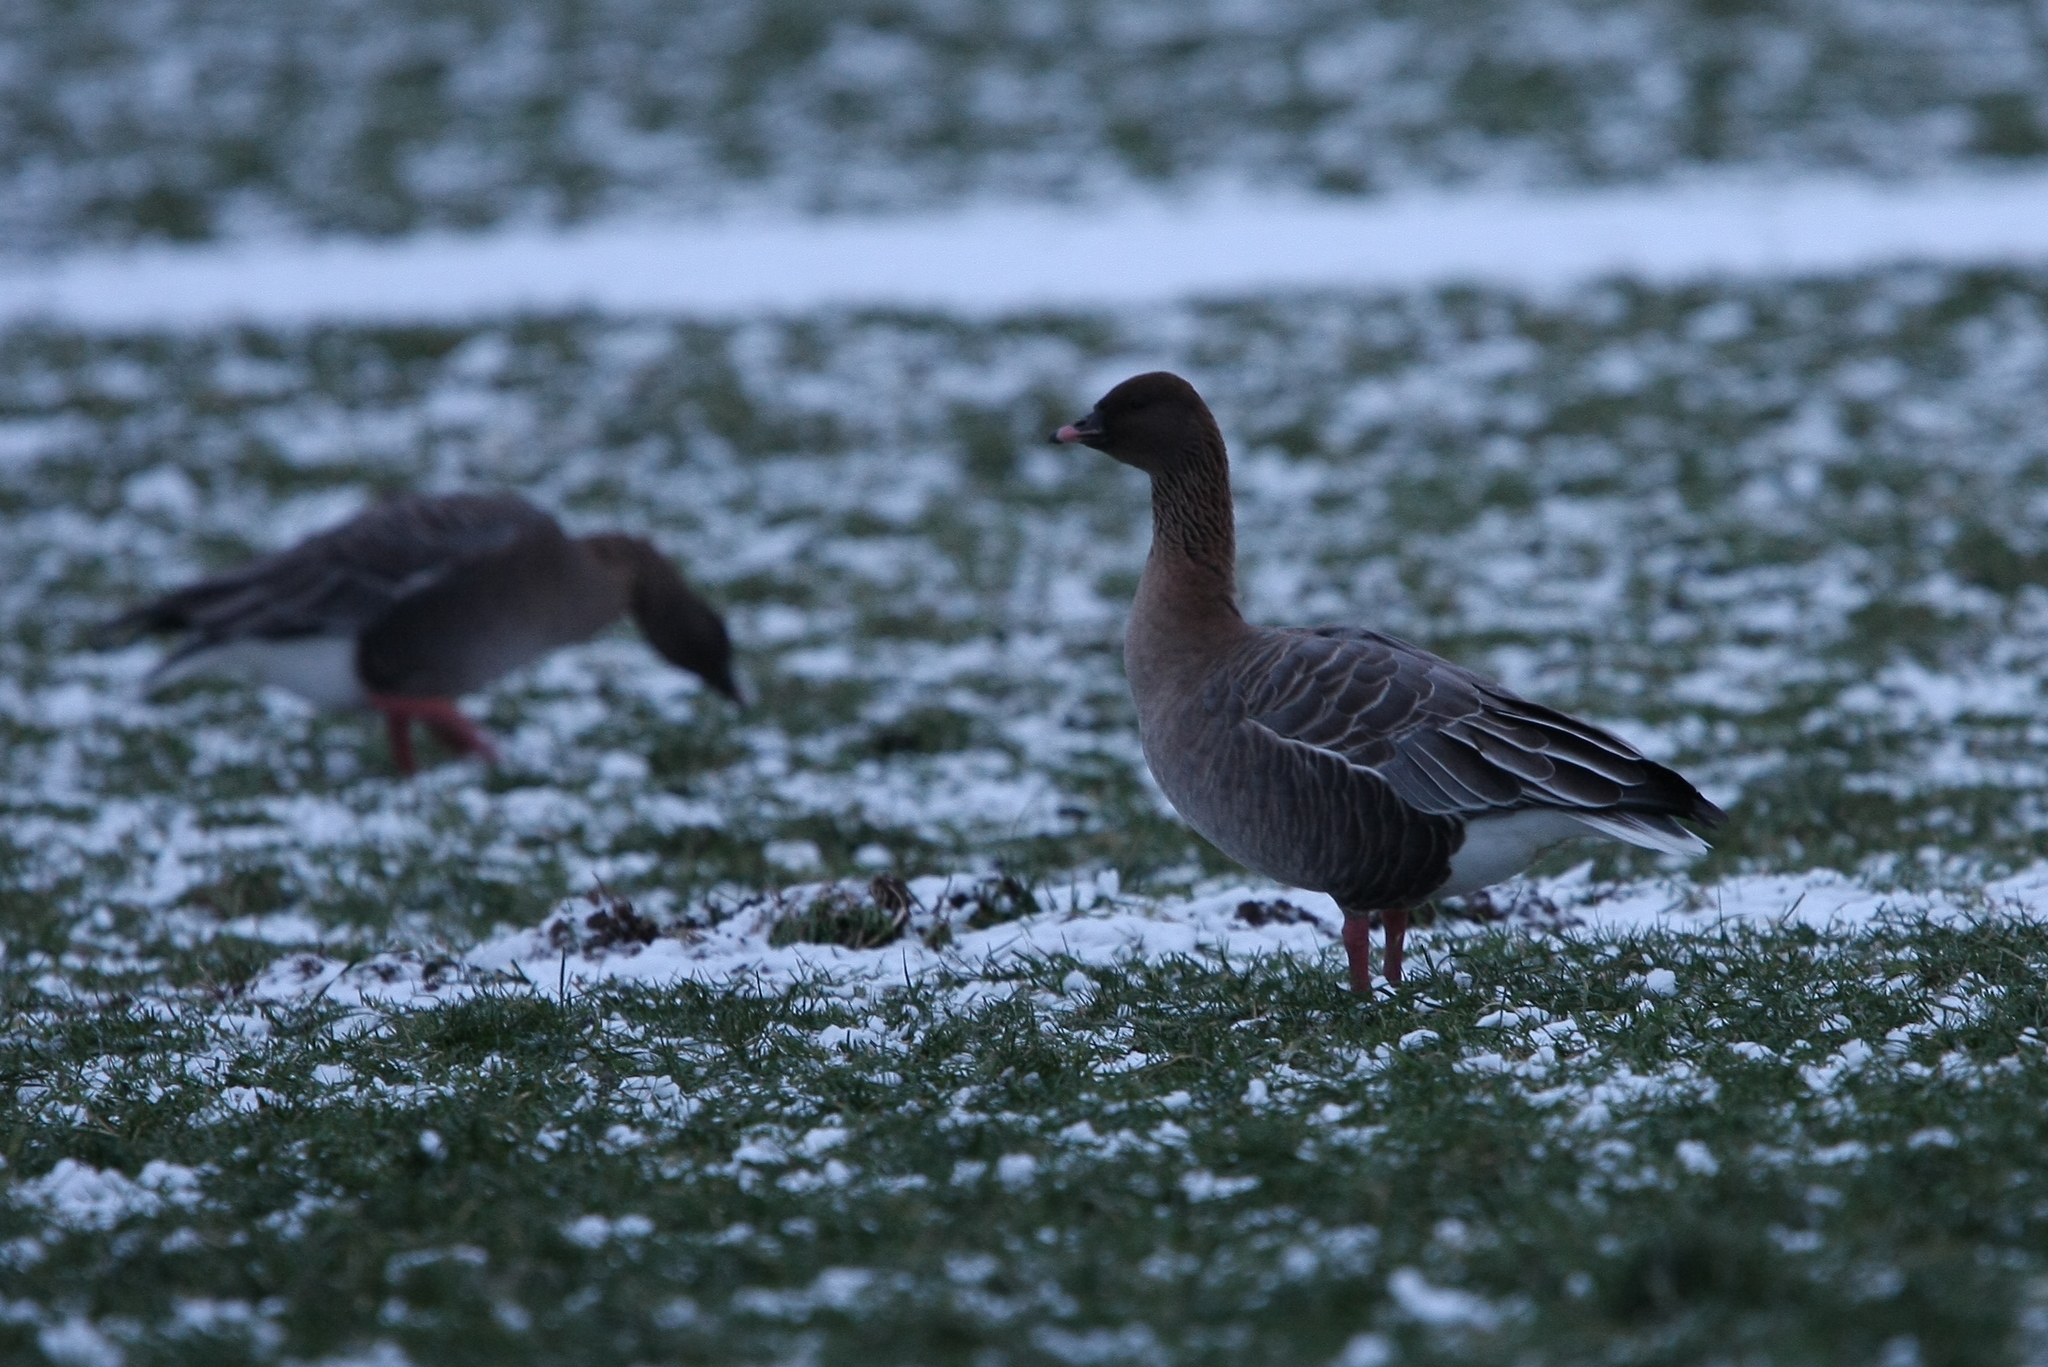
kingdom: Animalia
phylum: Chordata
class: Aves
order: Anseriformes
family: Anatidae
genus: Anser
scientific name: Anser brachyrhynchus
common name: Pink-footed goose
